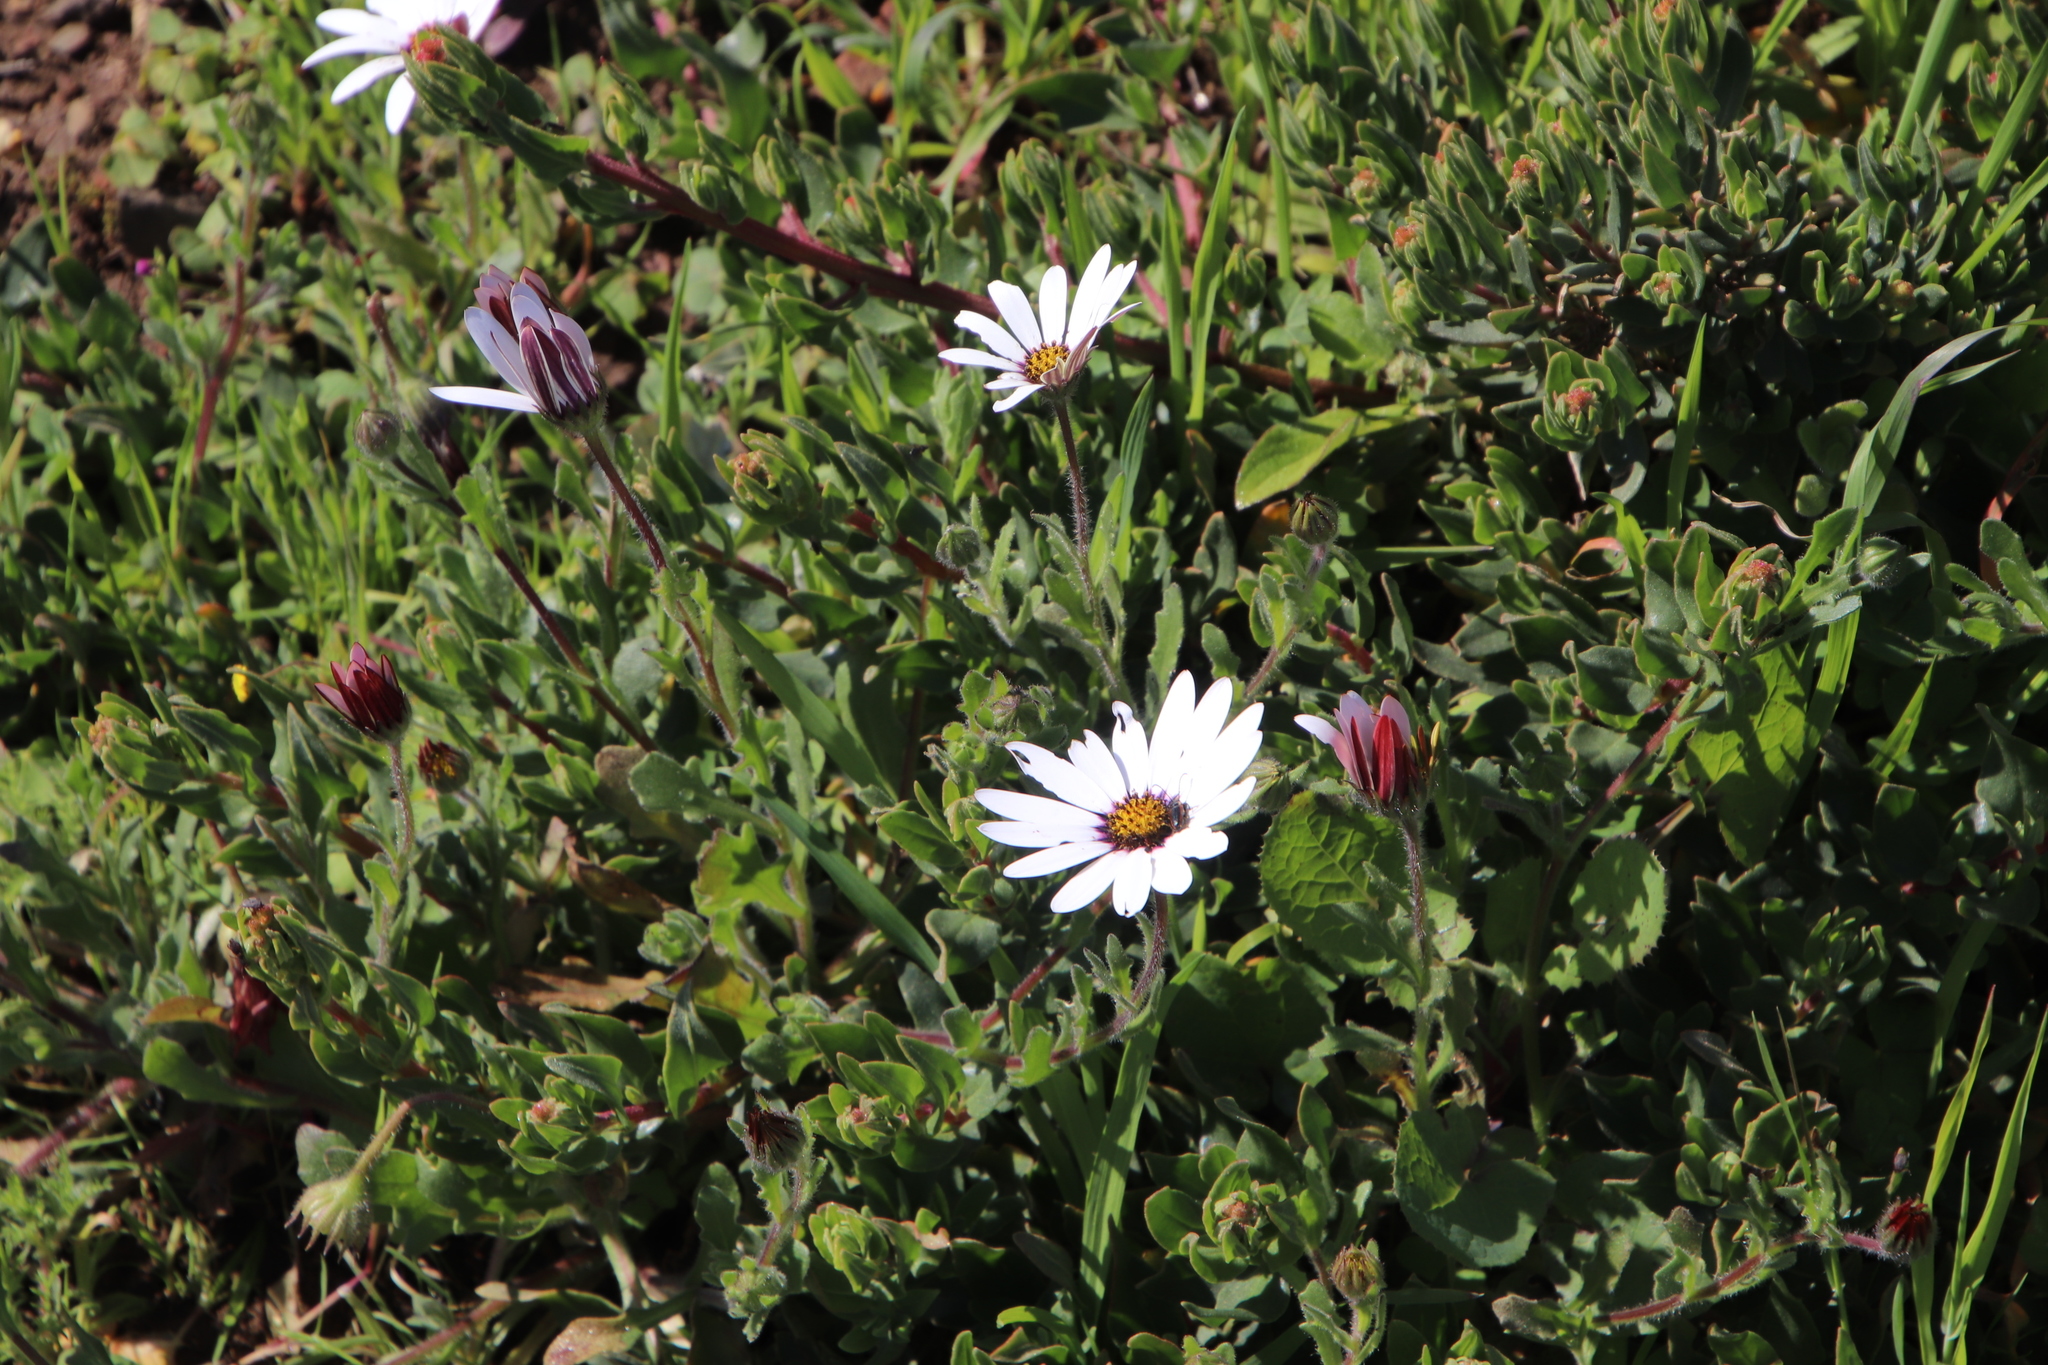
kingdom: Plantae
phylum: Tracheophyta
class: Magnoliopsida
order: Asterales
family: Asteraceae
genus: Dimorphotheca
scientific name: Dimorphotheca pluvialis
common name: Weather prophet
